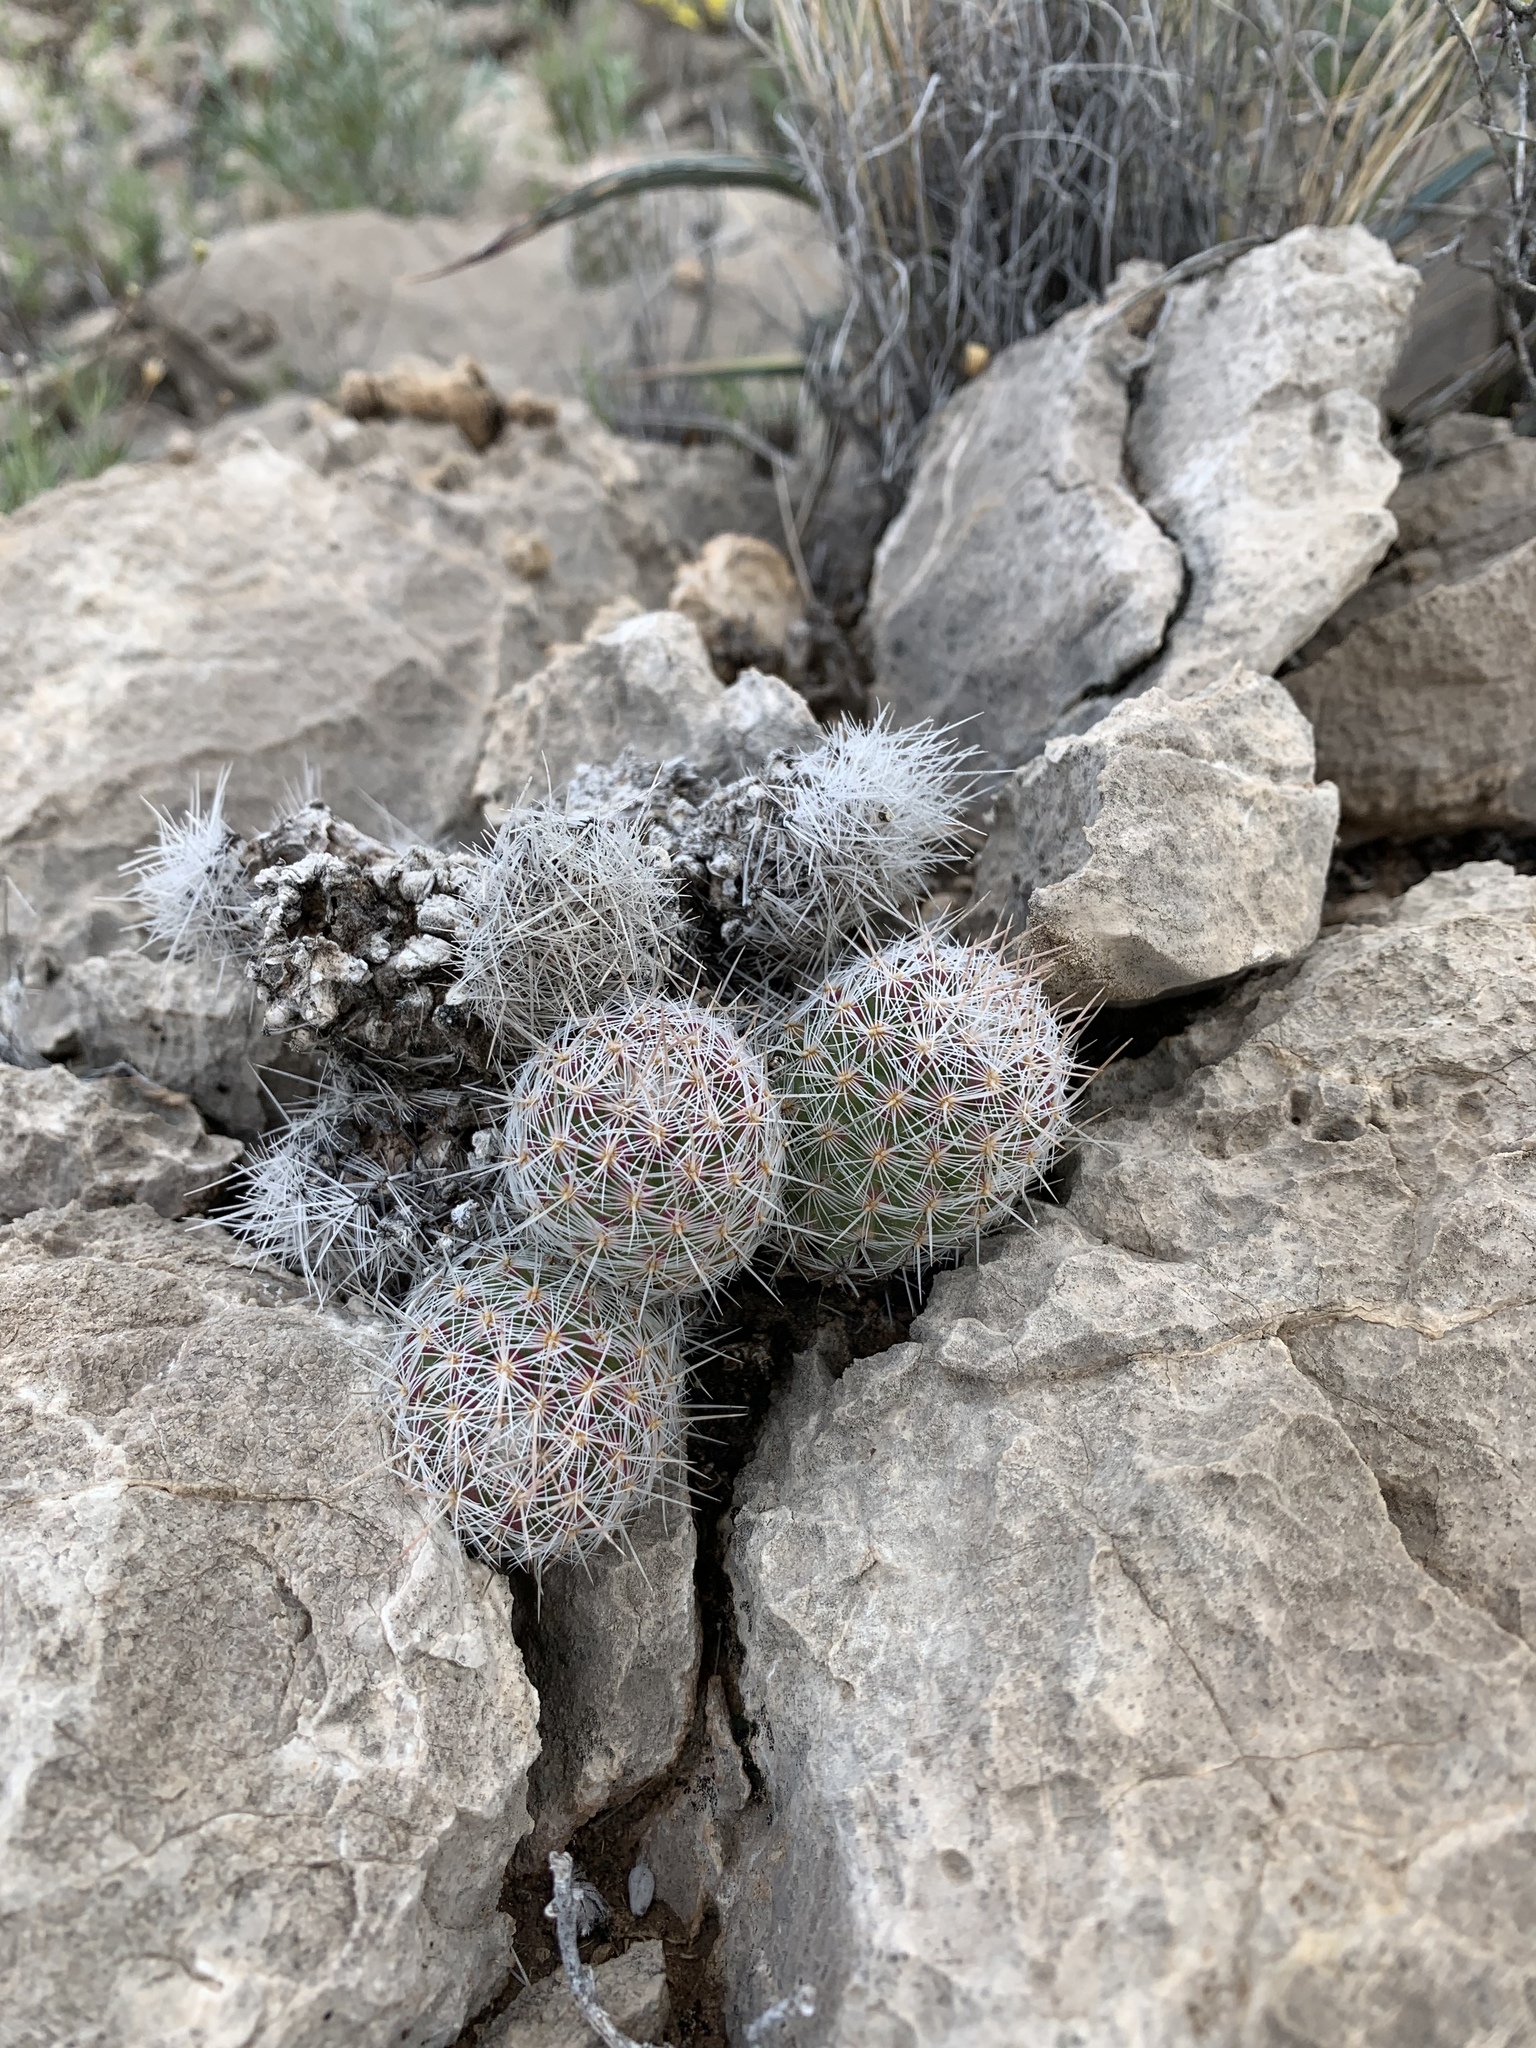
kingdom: Plantae
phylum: Tracheophyta
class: Magnoliopsida
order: Caryophyllales
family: Cactaceae
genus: Pelecyphora
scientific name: Pelecyphora tuberculosa
